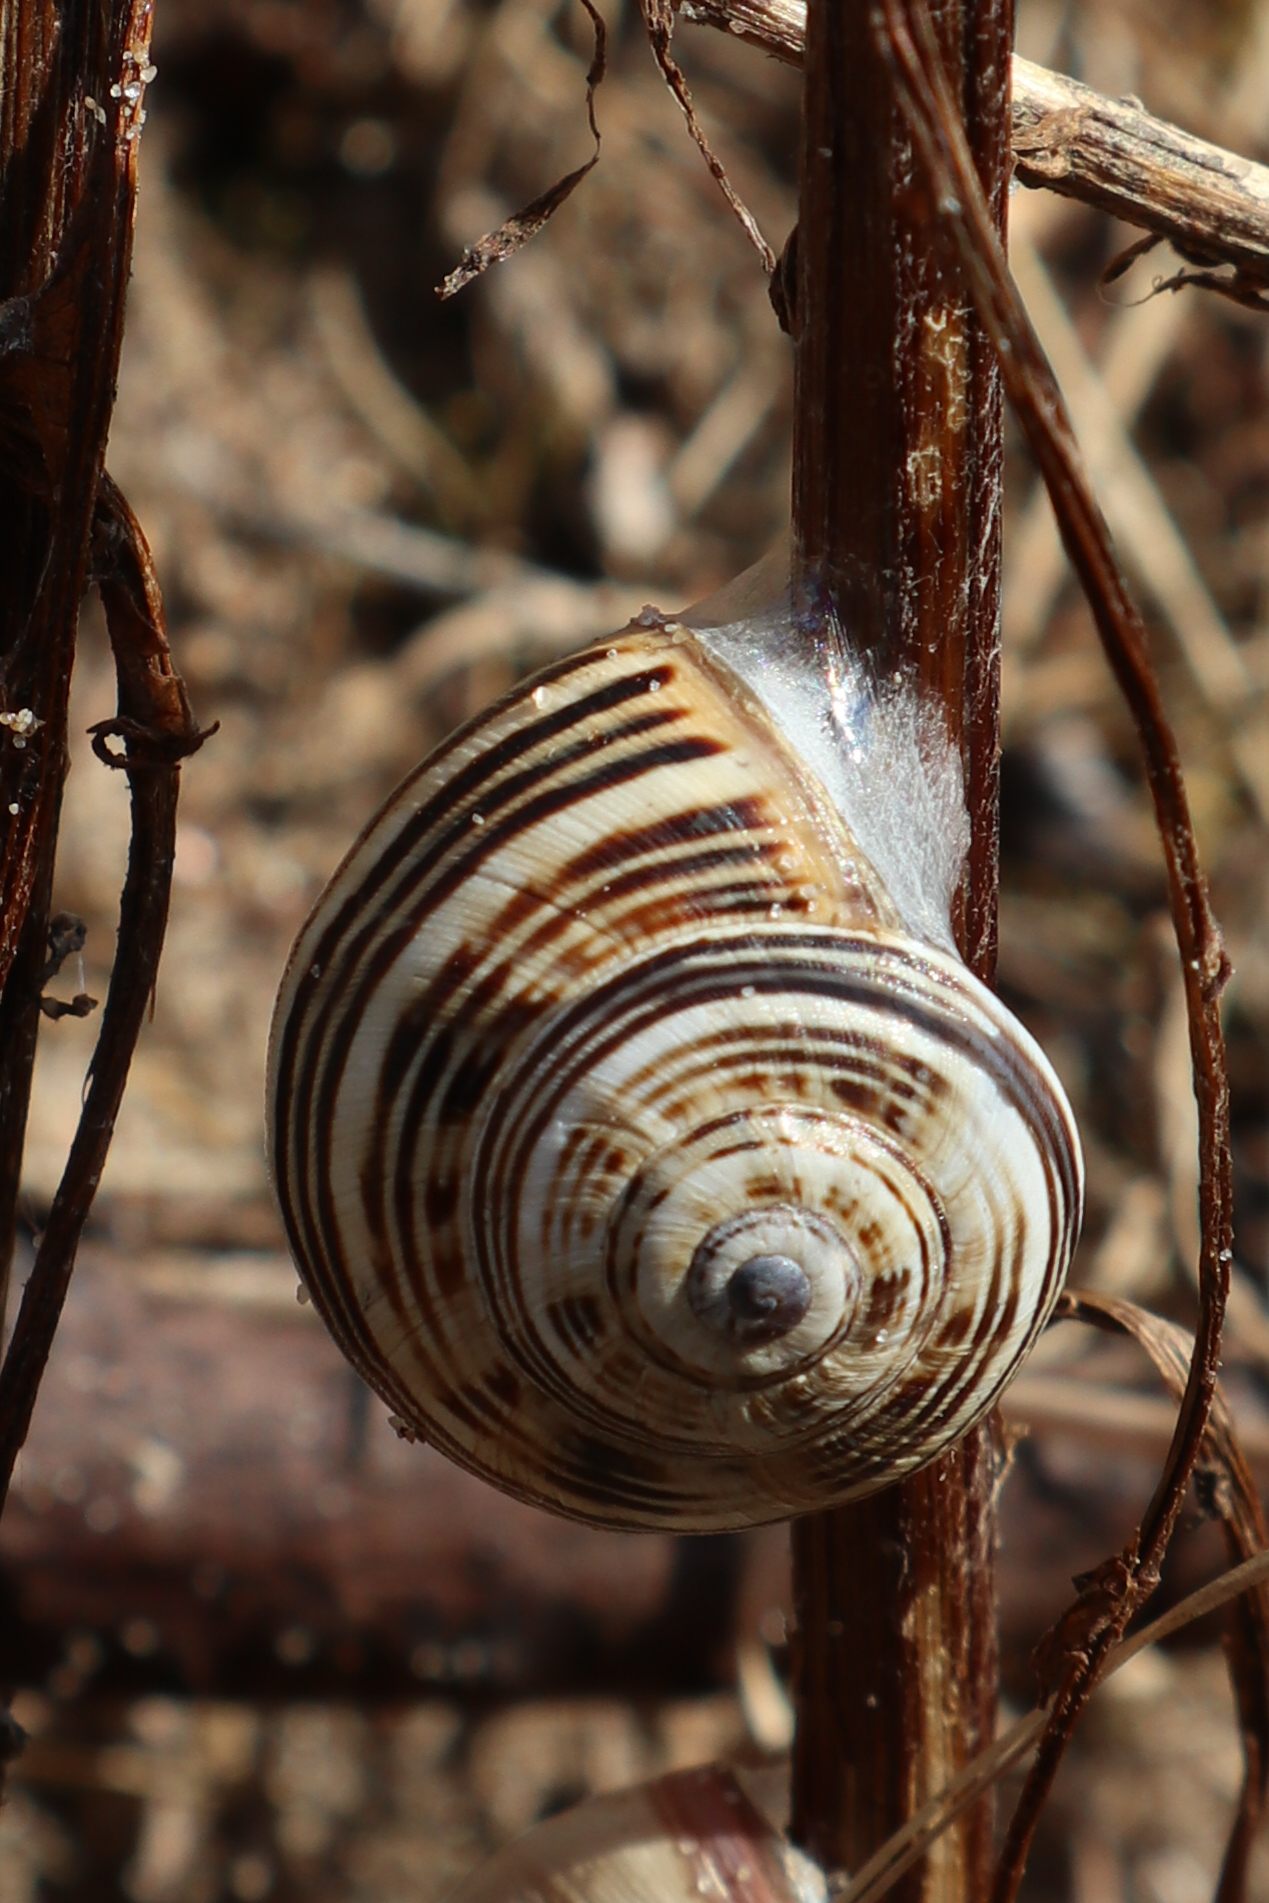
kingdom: Animalia
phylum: Mollusca
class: Gastropoda
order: Stylommatophora
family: Helicidae
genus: Theba
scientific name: Theba pisana
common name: White snail
